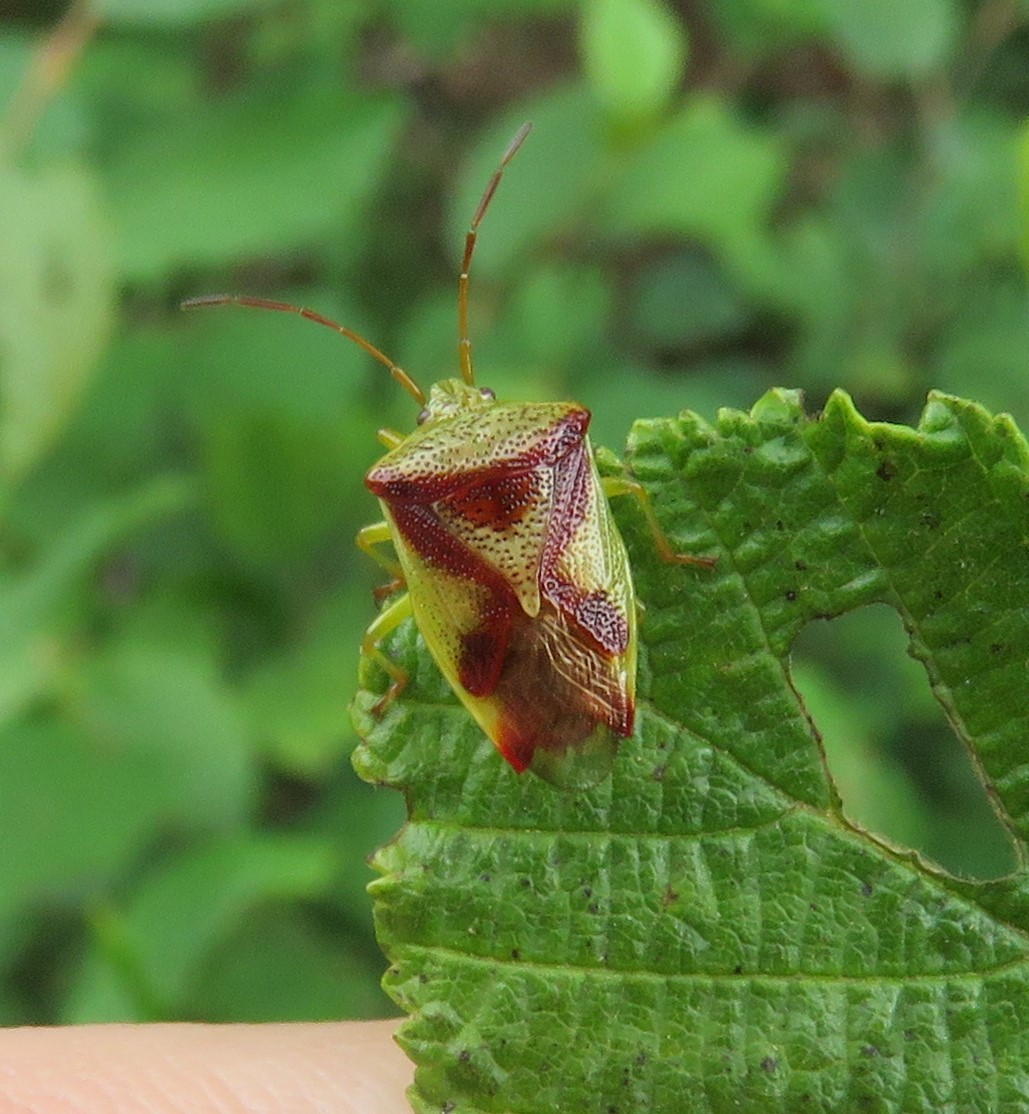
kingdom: Animalia
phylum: Arthropoda
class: Insecta
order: Hemiptera
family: Acanthosomatidae
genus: Elasmostethus
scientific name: Elasmostethus cruciatus
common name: Red-cross shield bug
